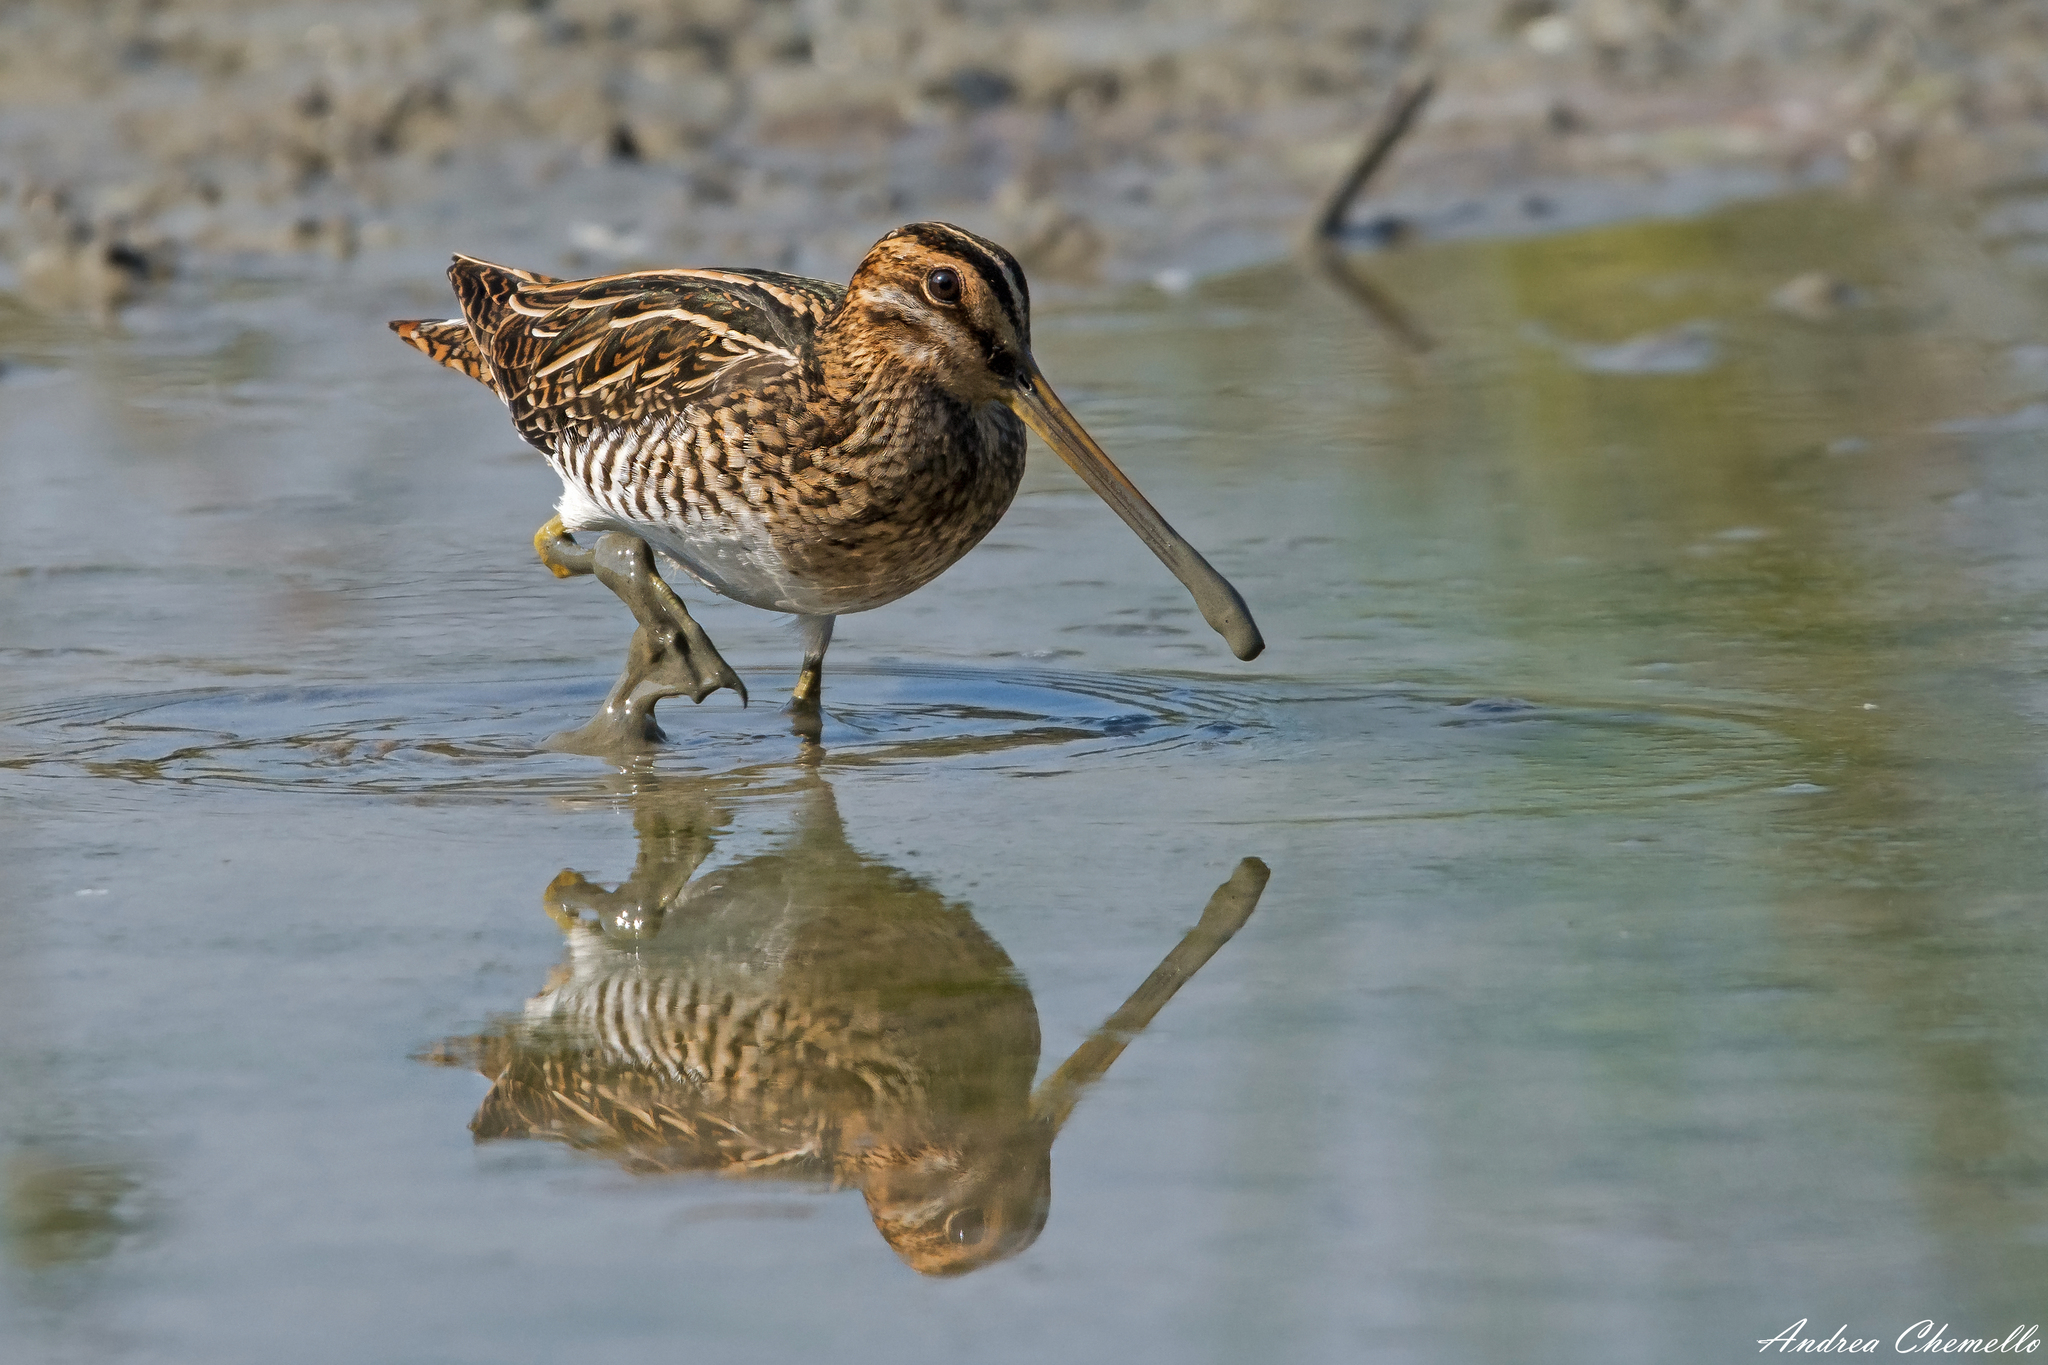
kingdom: Animalia
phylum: Chordata
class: Aves
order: Charadriiformes
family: Scolopacidae
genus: Gallinago
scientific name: Gallinago gallinago
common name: Common snipe
